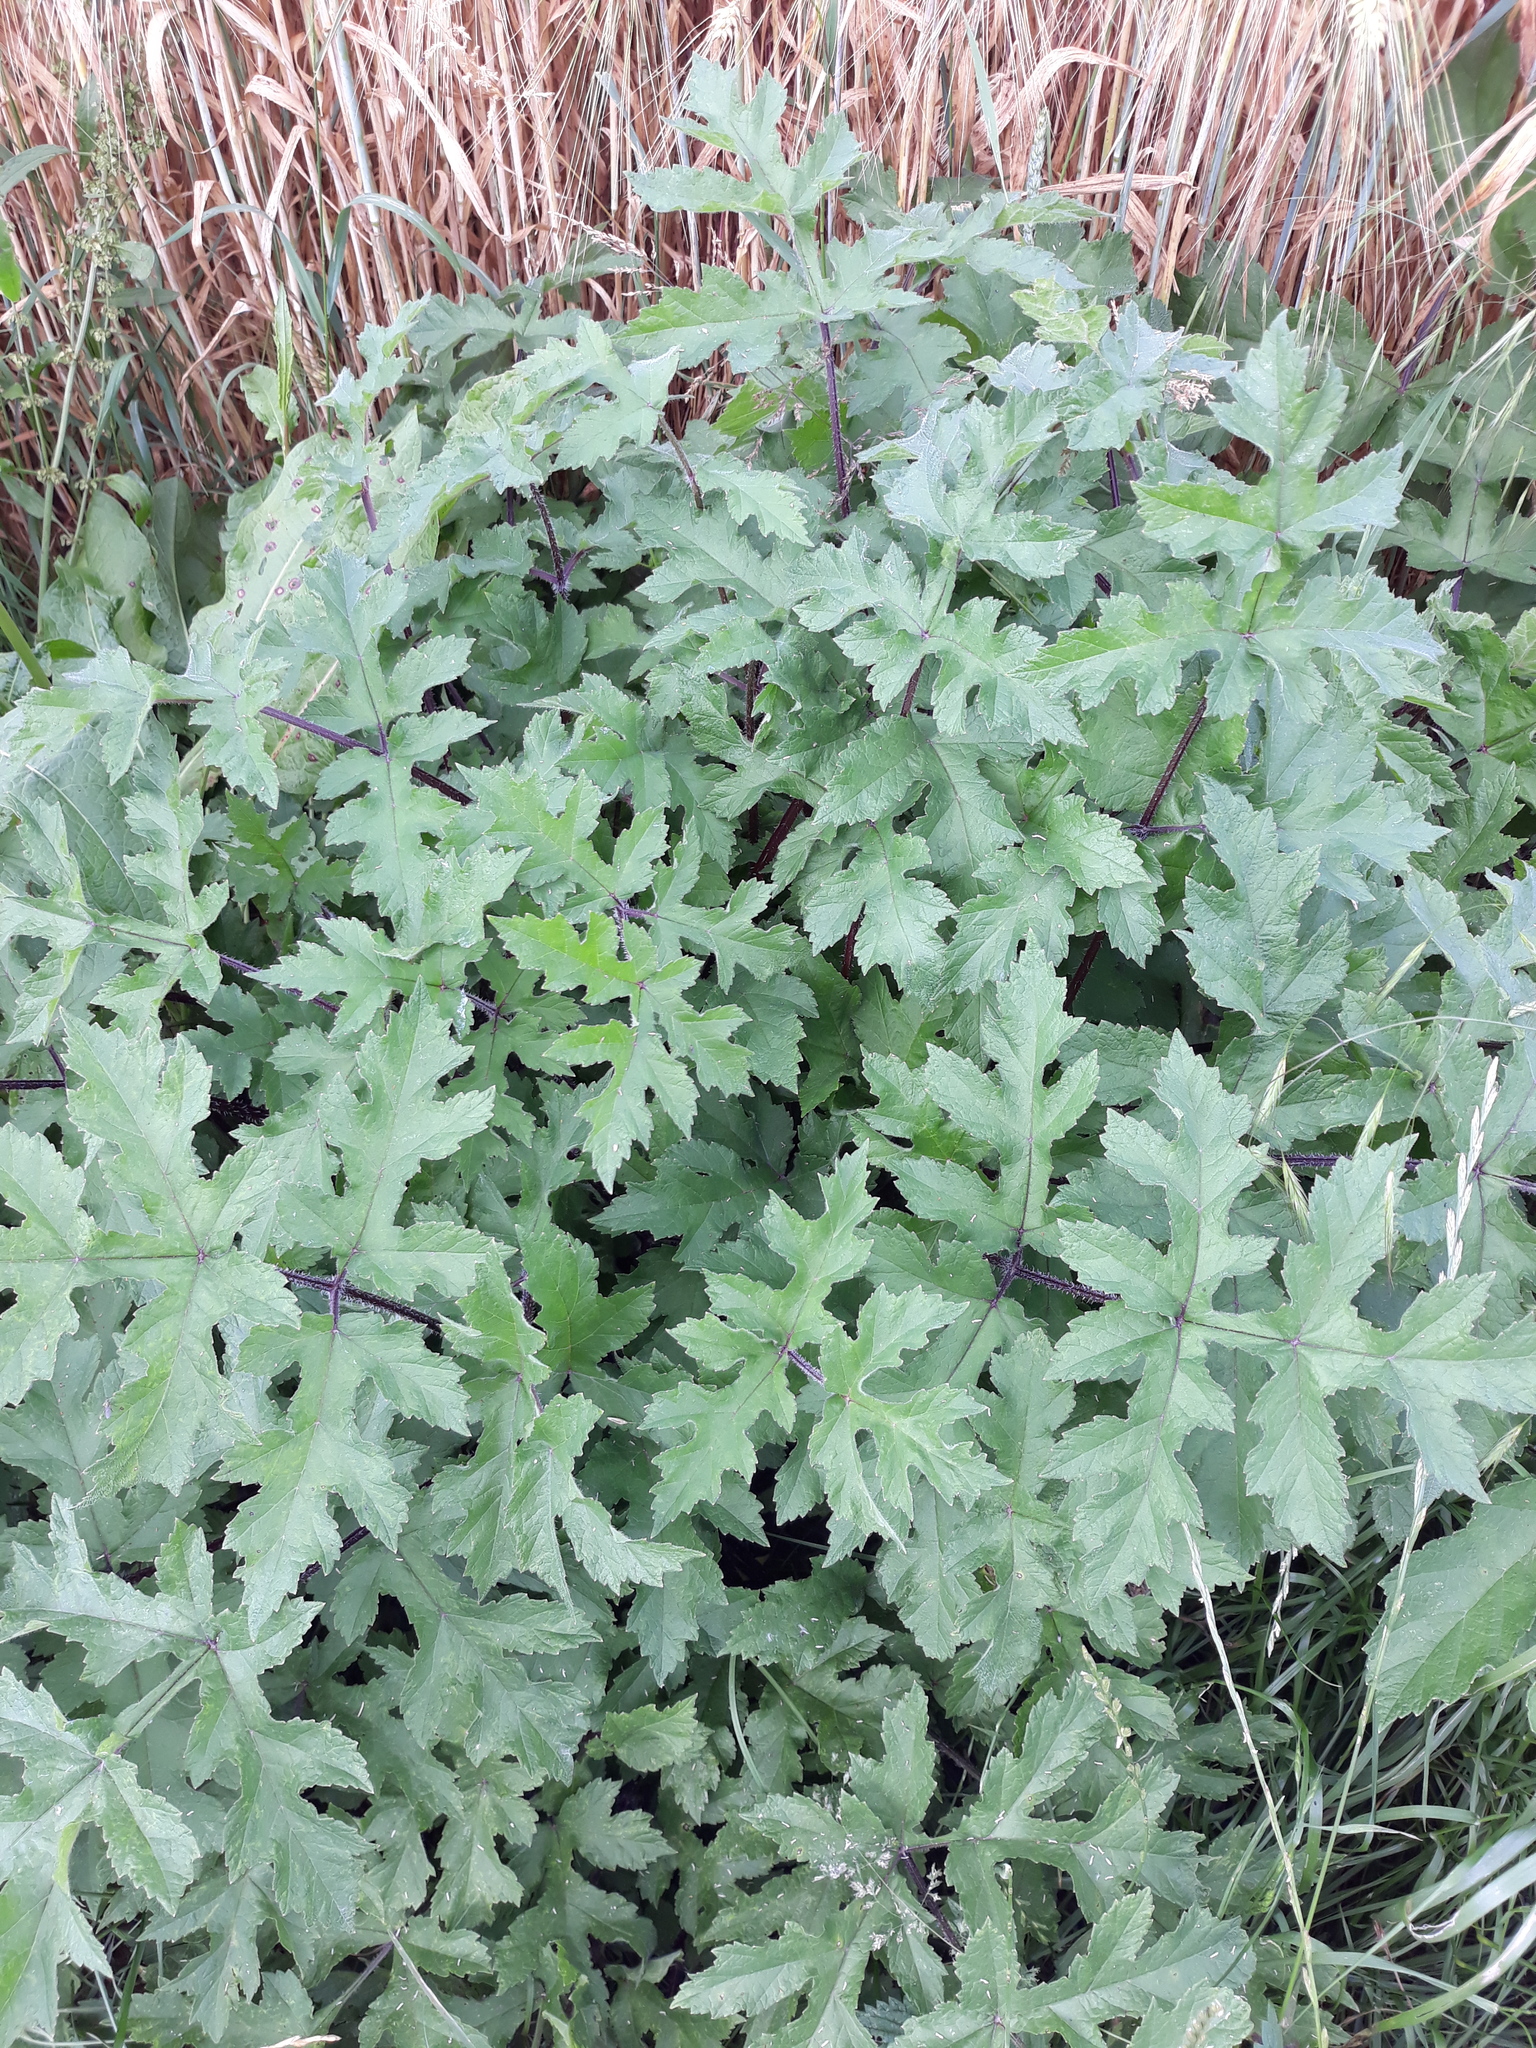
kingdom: Plantae
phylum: Tracheophyta
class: Magnoliopsida
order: Apiales
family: Apiaceae
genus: Heracleum
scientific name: Heracleum sphondylium
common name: Hogweed
